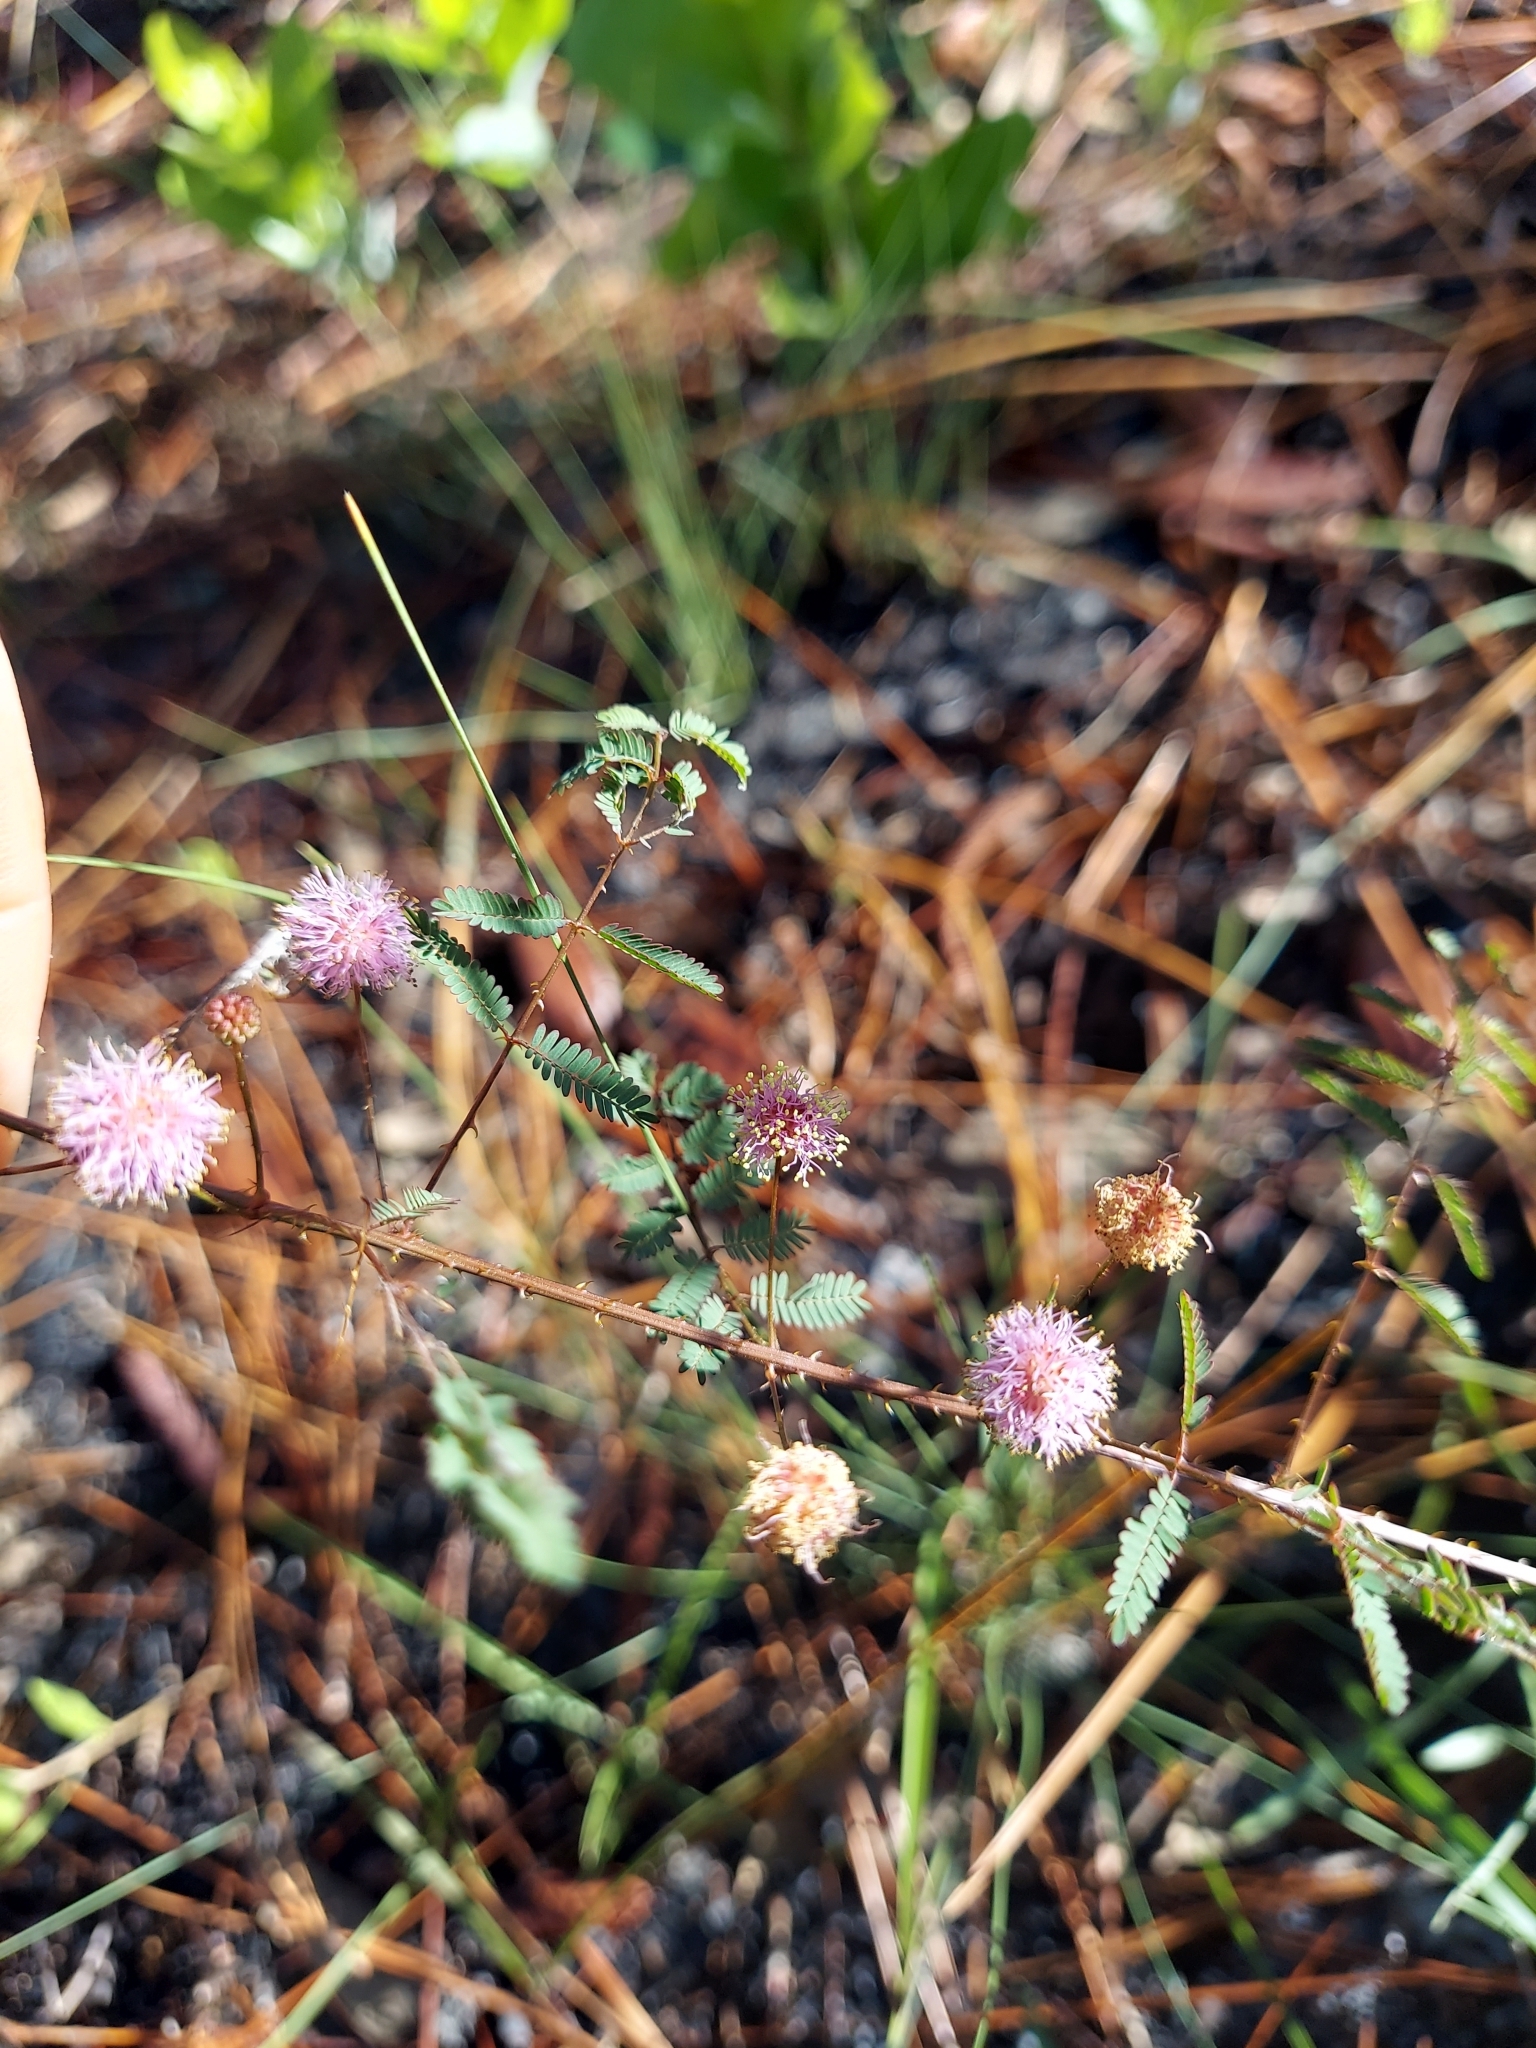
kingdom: Plantae
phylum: Tracheophyta
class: Magnoliopsida
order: Fabales
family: Fabaceae
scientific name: Fabaceae
